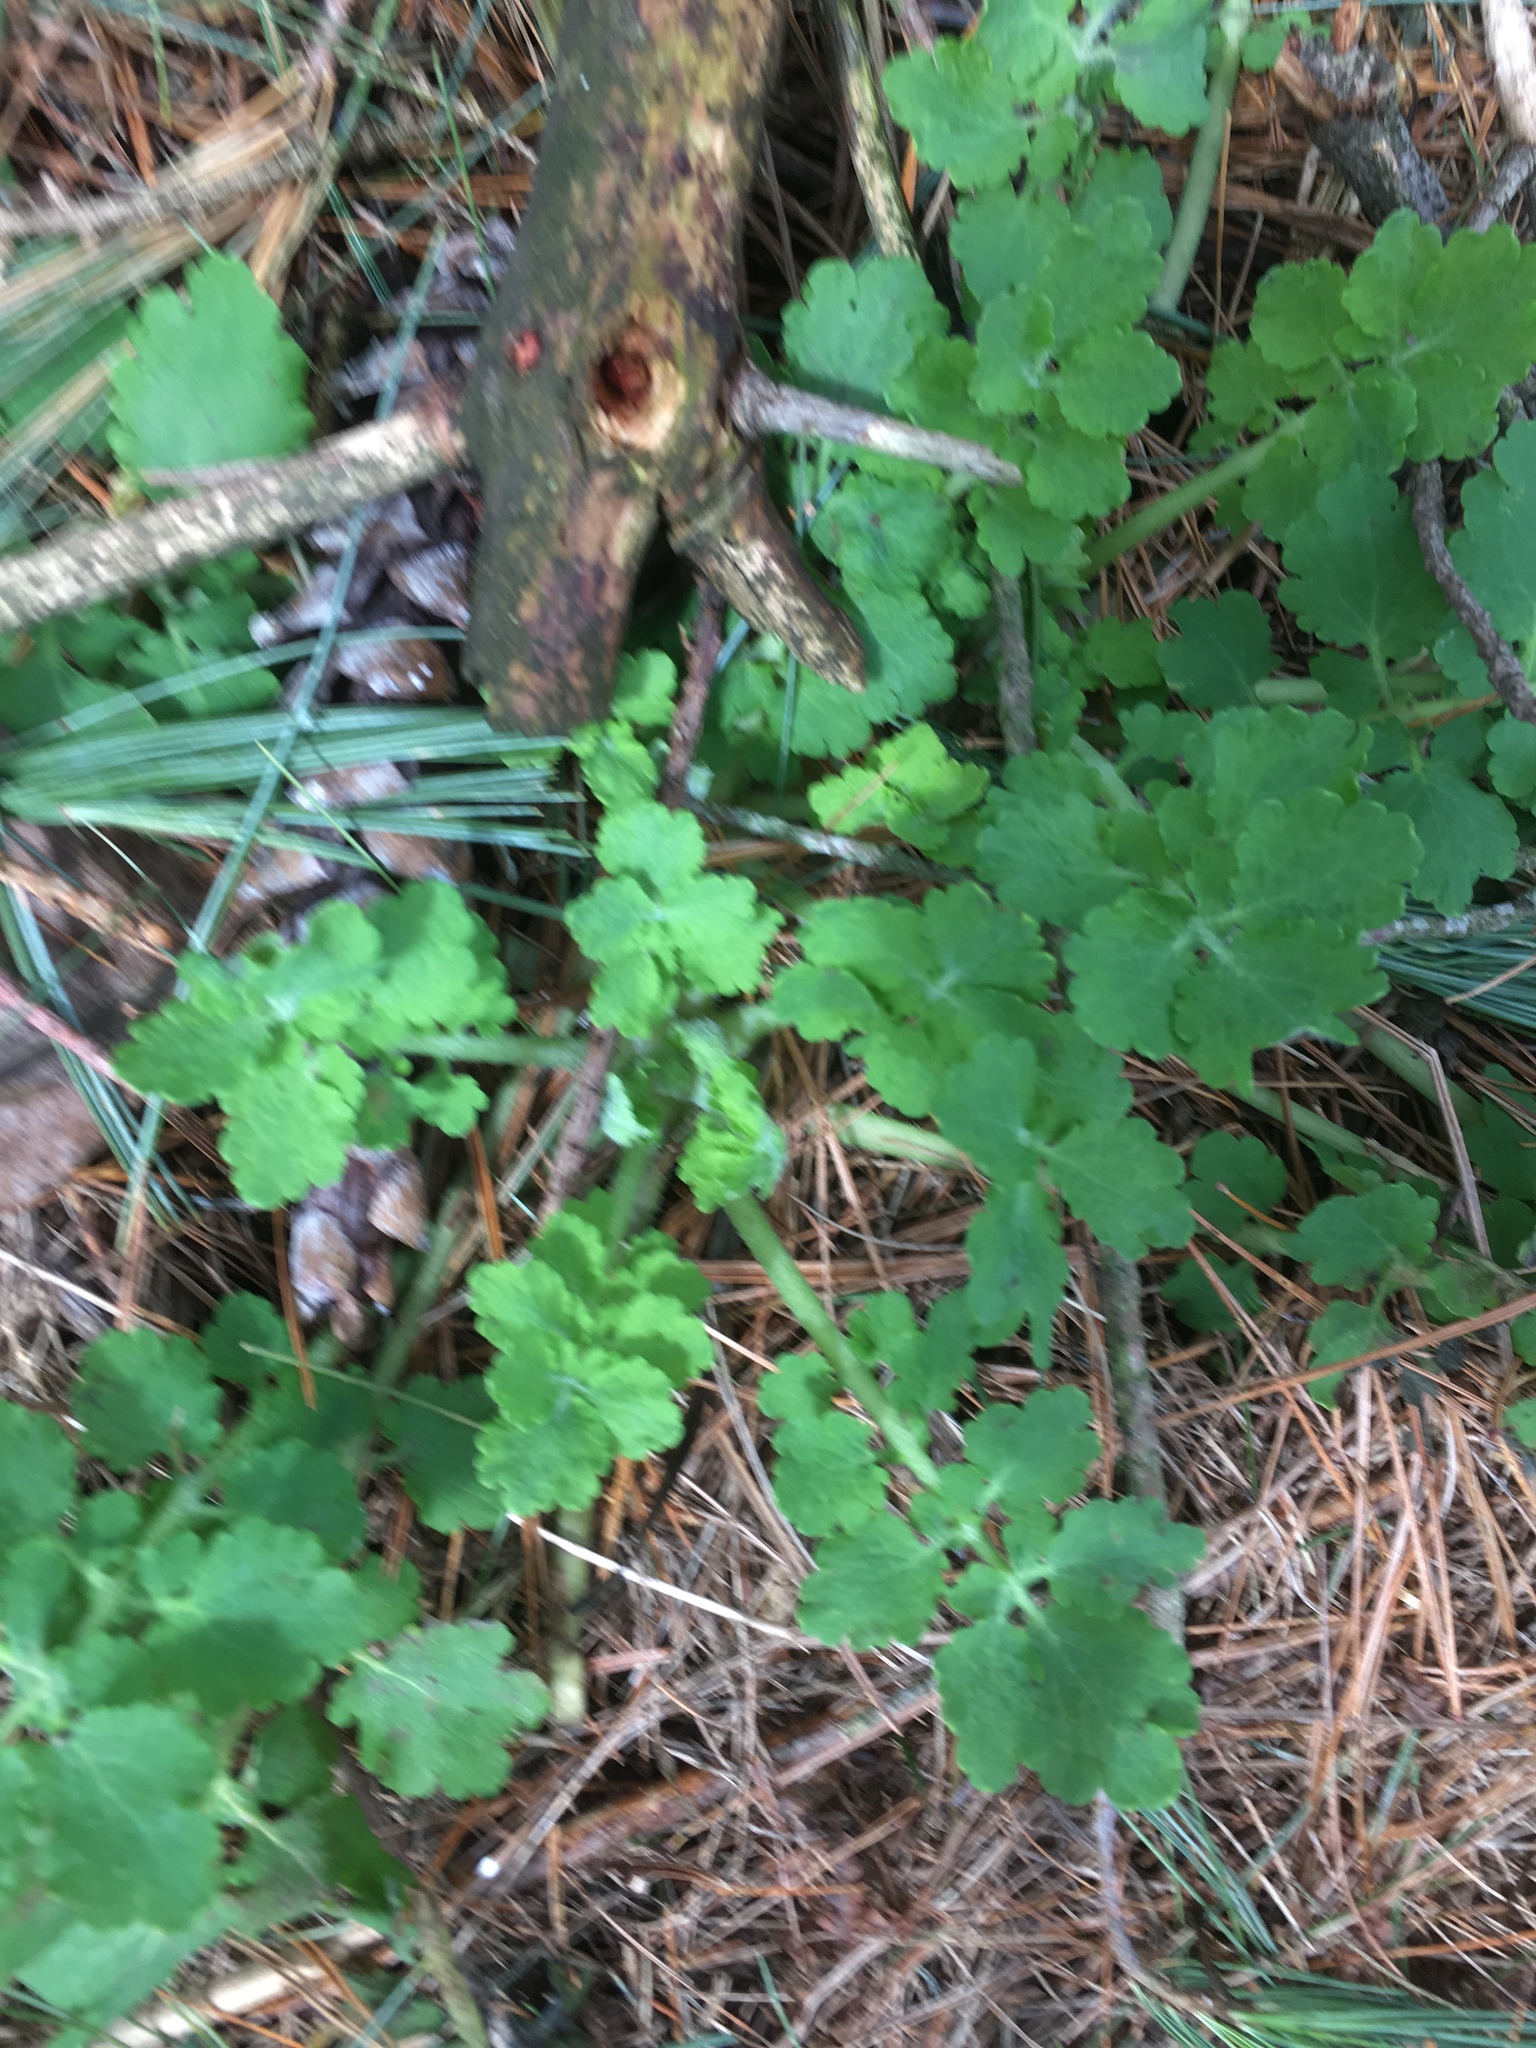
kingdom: Plantae
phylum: Tracheophyta
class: Magnoliopsida
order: Ranunculales
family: Papaveraceae
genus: Chelidonium
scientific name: Chelidonium majus
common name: Greater celandine
